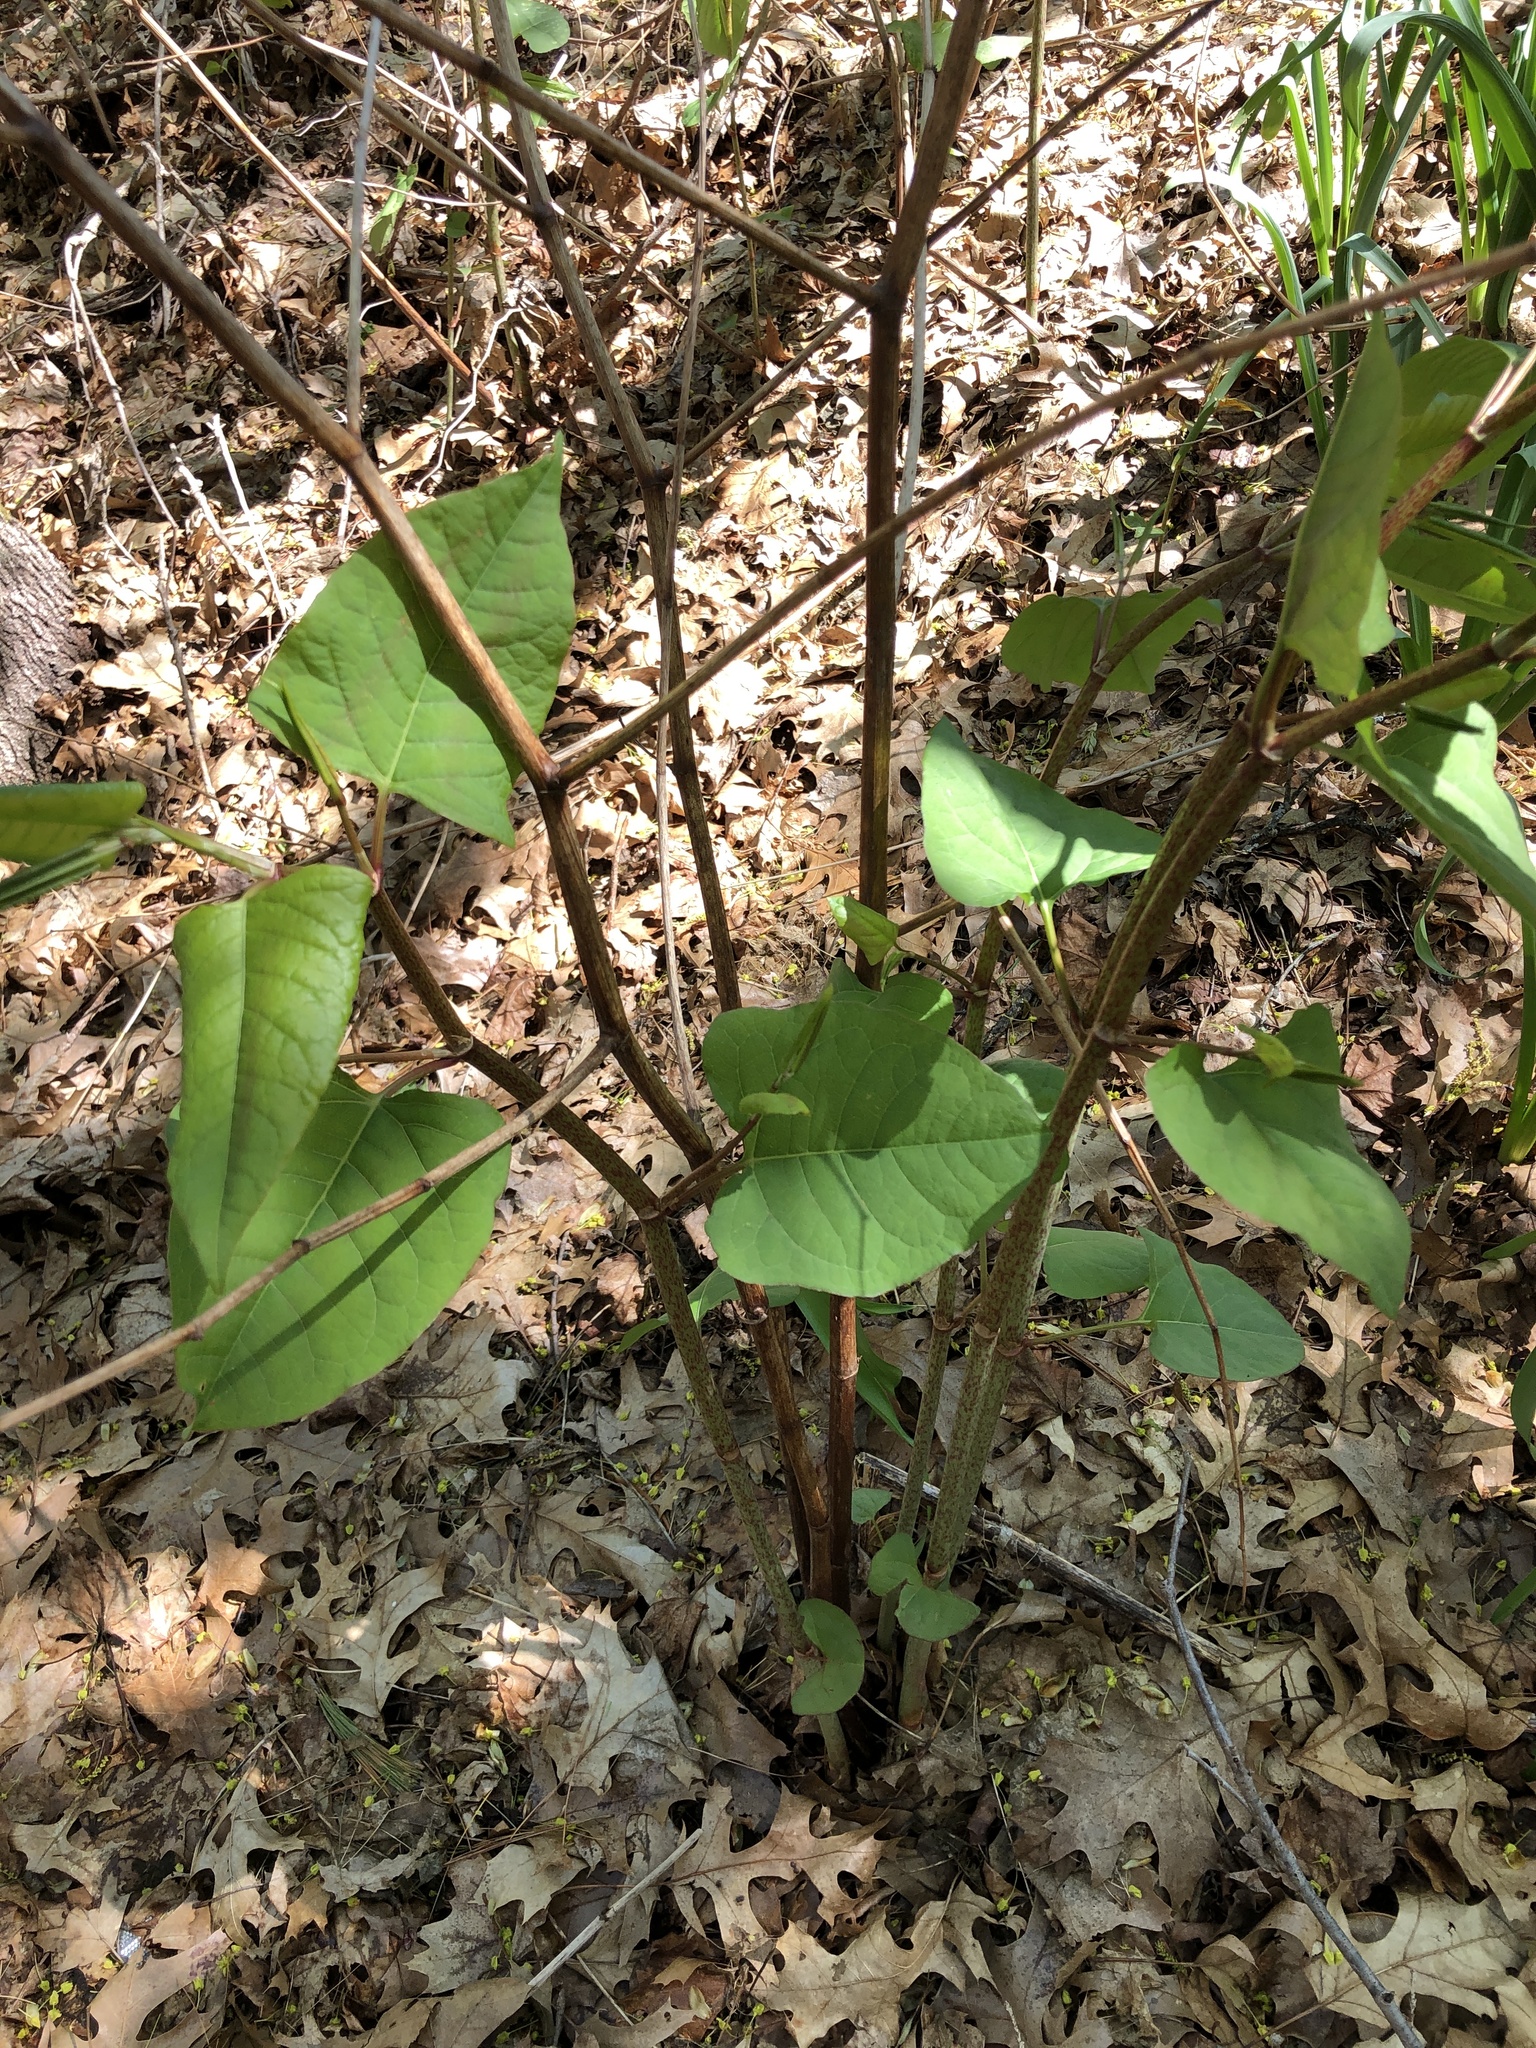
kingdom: Plantae
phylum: Tracheophyta
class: Magnoliopsida
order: Caryophyllales
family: Polygonaceae
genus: Reynoutria
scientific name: Reynoutria japonica
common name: Japanese knotweed
